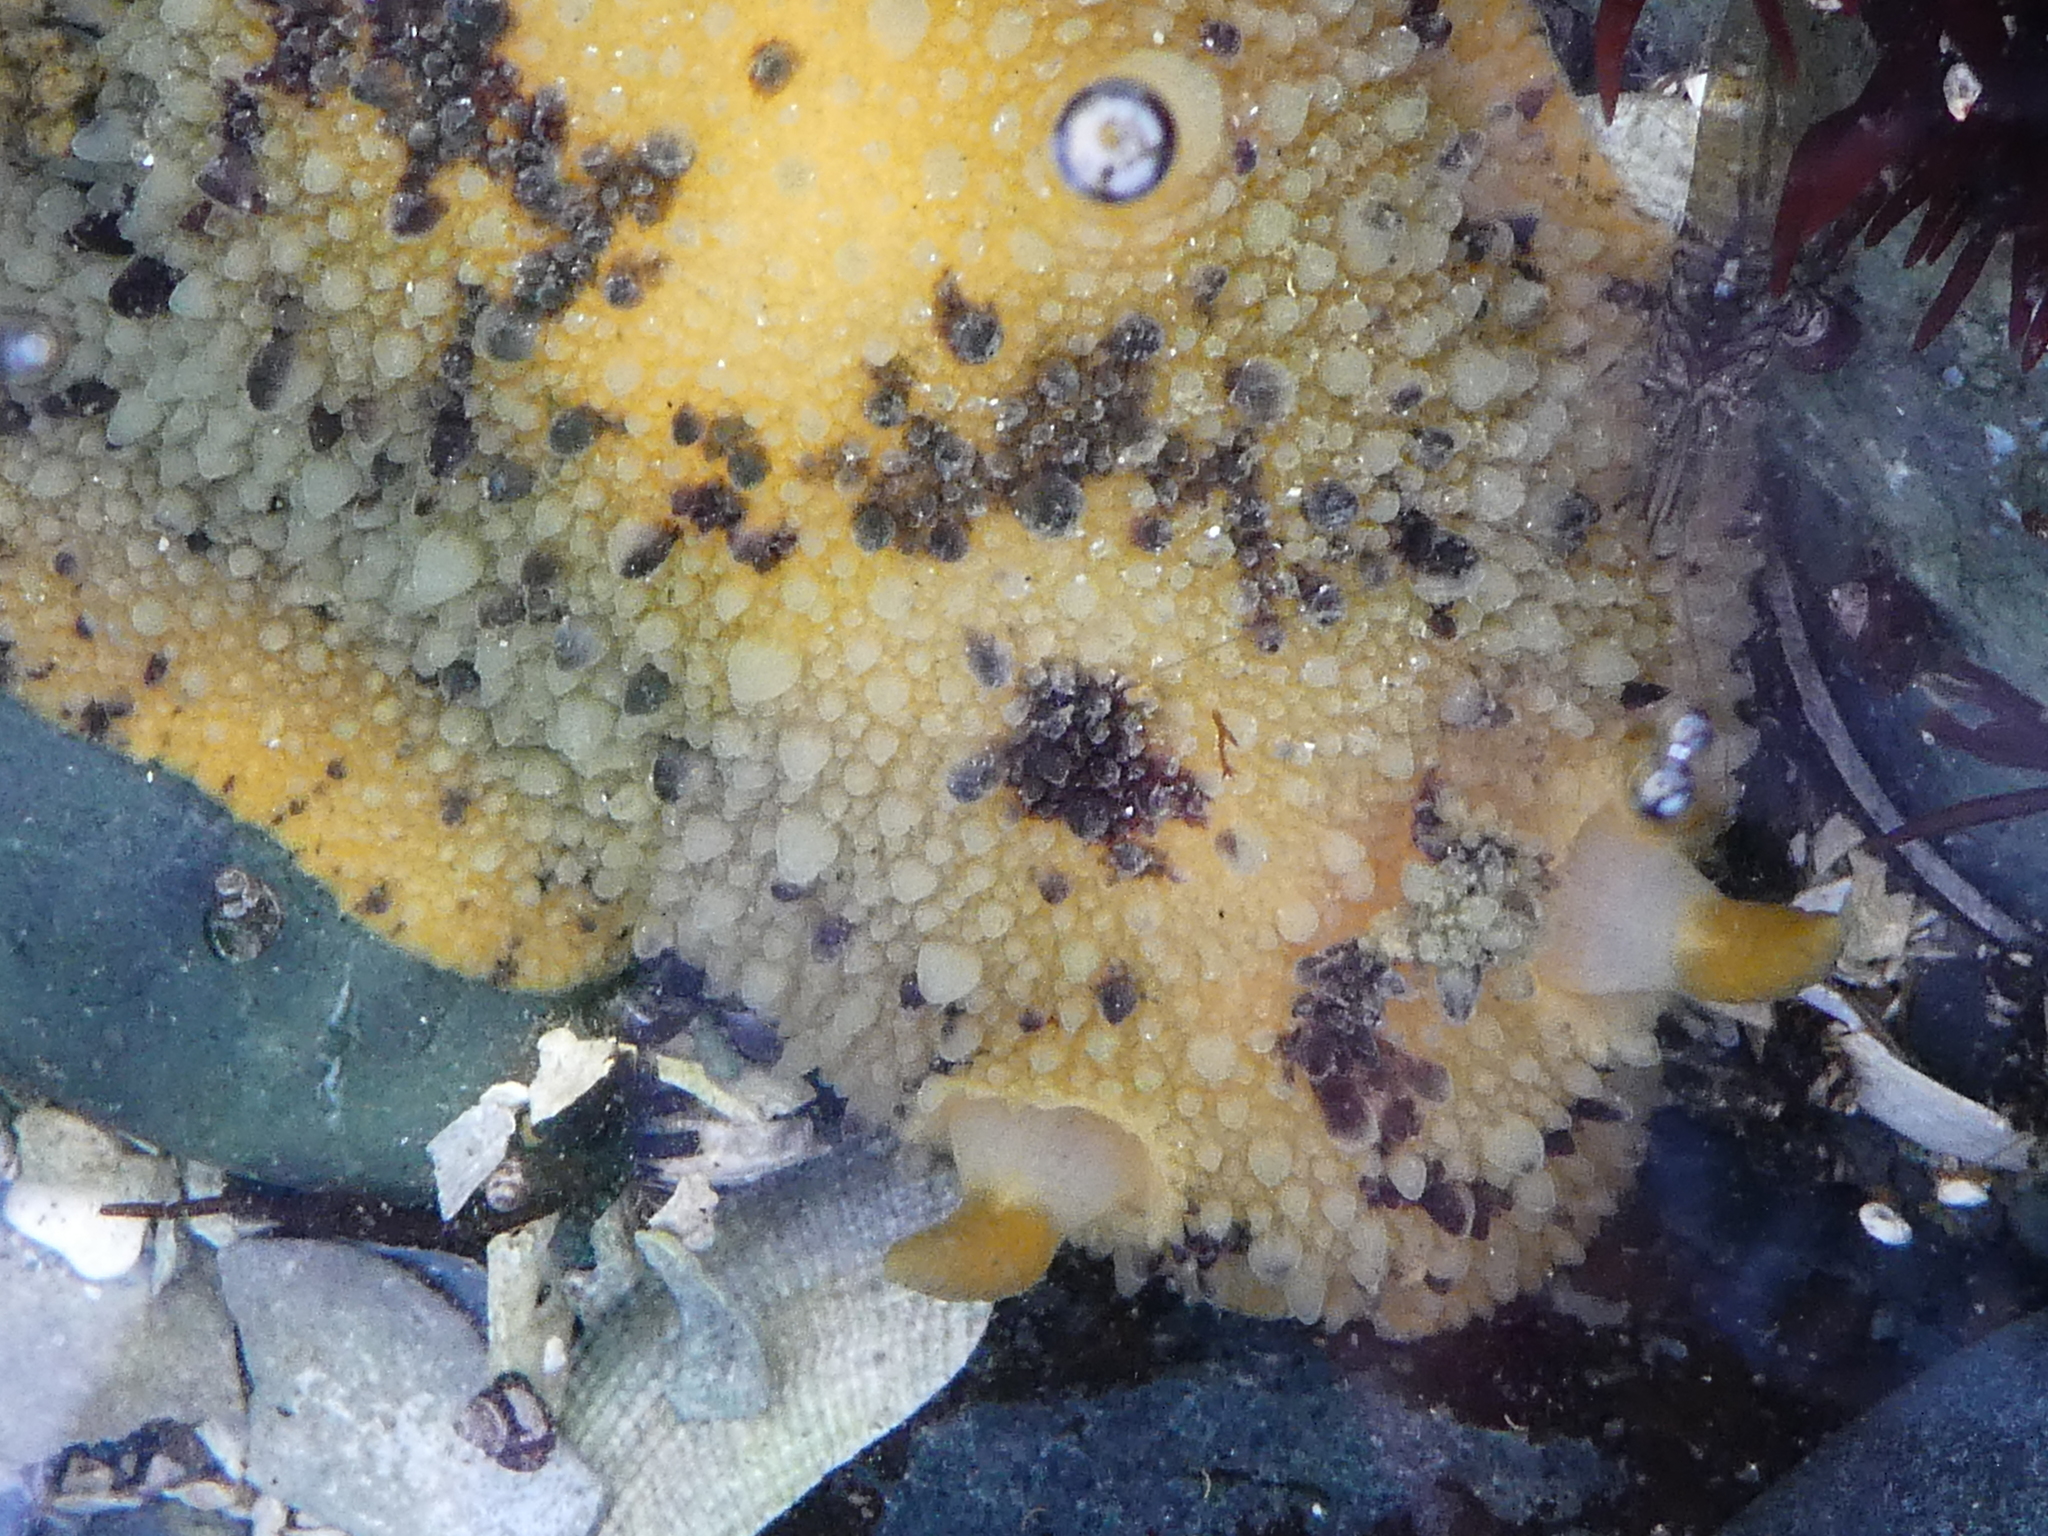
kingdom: Animalia
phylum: Mollusca
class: Gastropoda
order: Nudibranchia
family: Dorididae
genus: Doris
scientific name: Doris montereyensis
